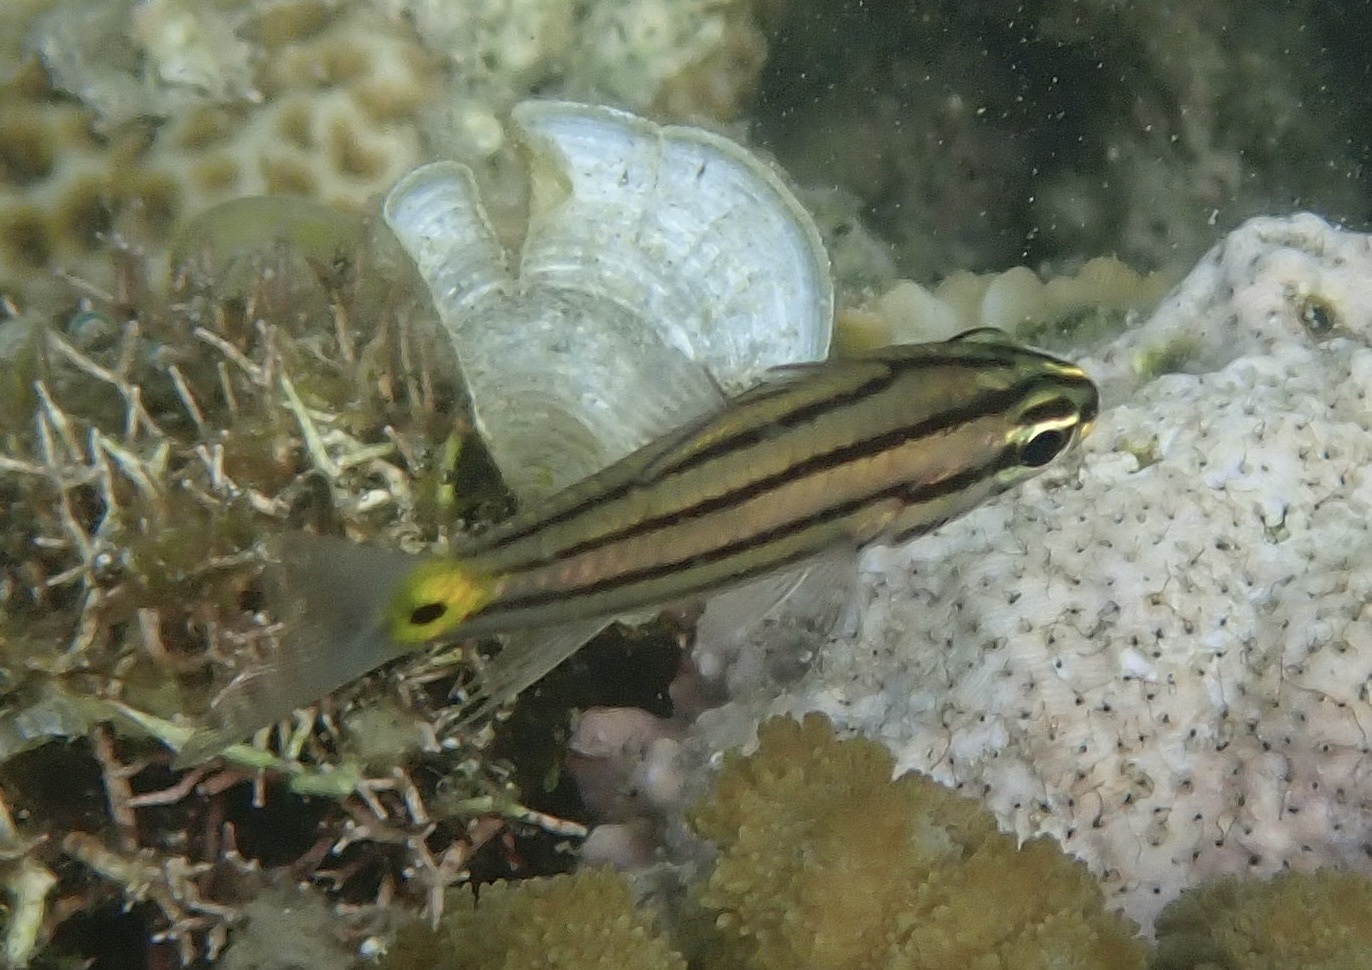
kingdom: Animalia
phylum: Chordata
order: Perciformes
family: Apogonidae
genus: Cheilodipterus
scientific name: Cheilodipterus quinquelineatus
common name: Five-lined cardinalfish
